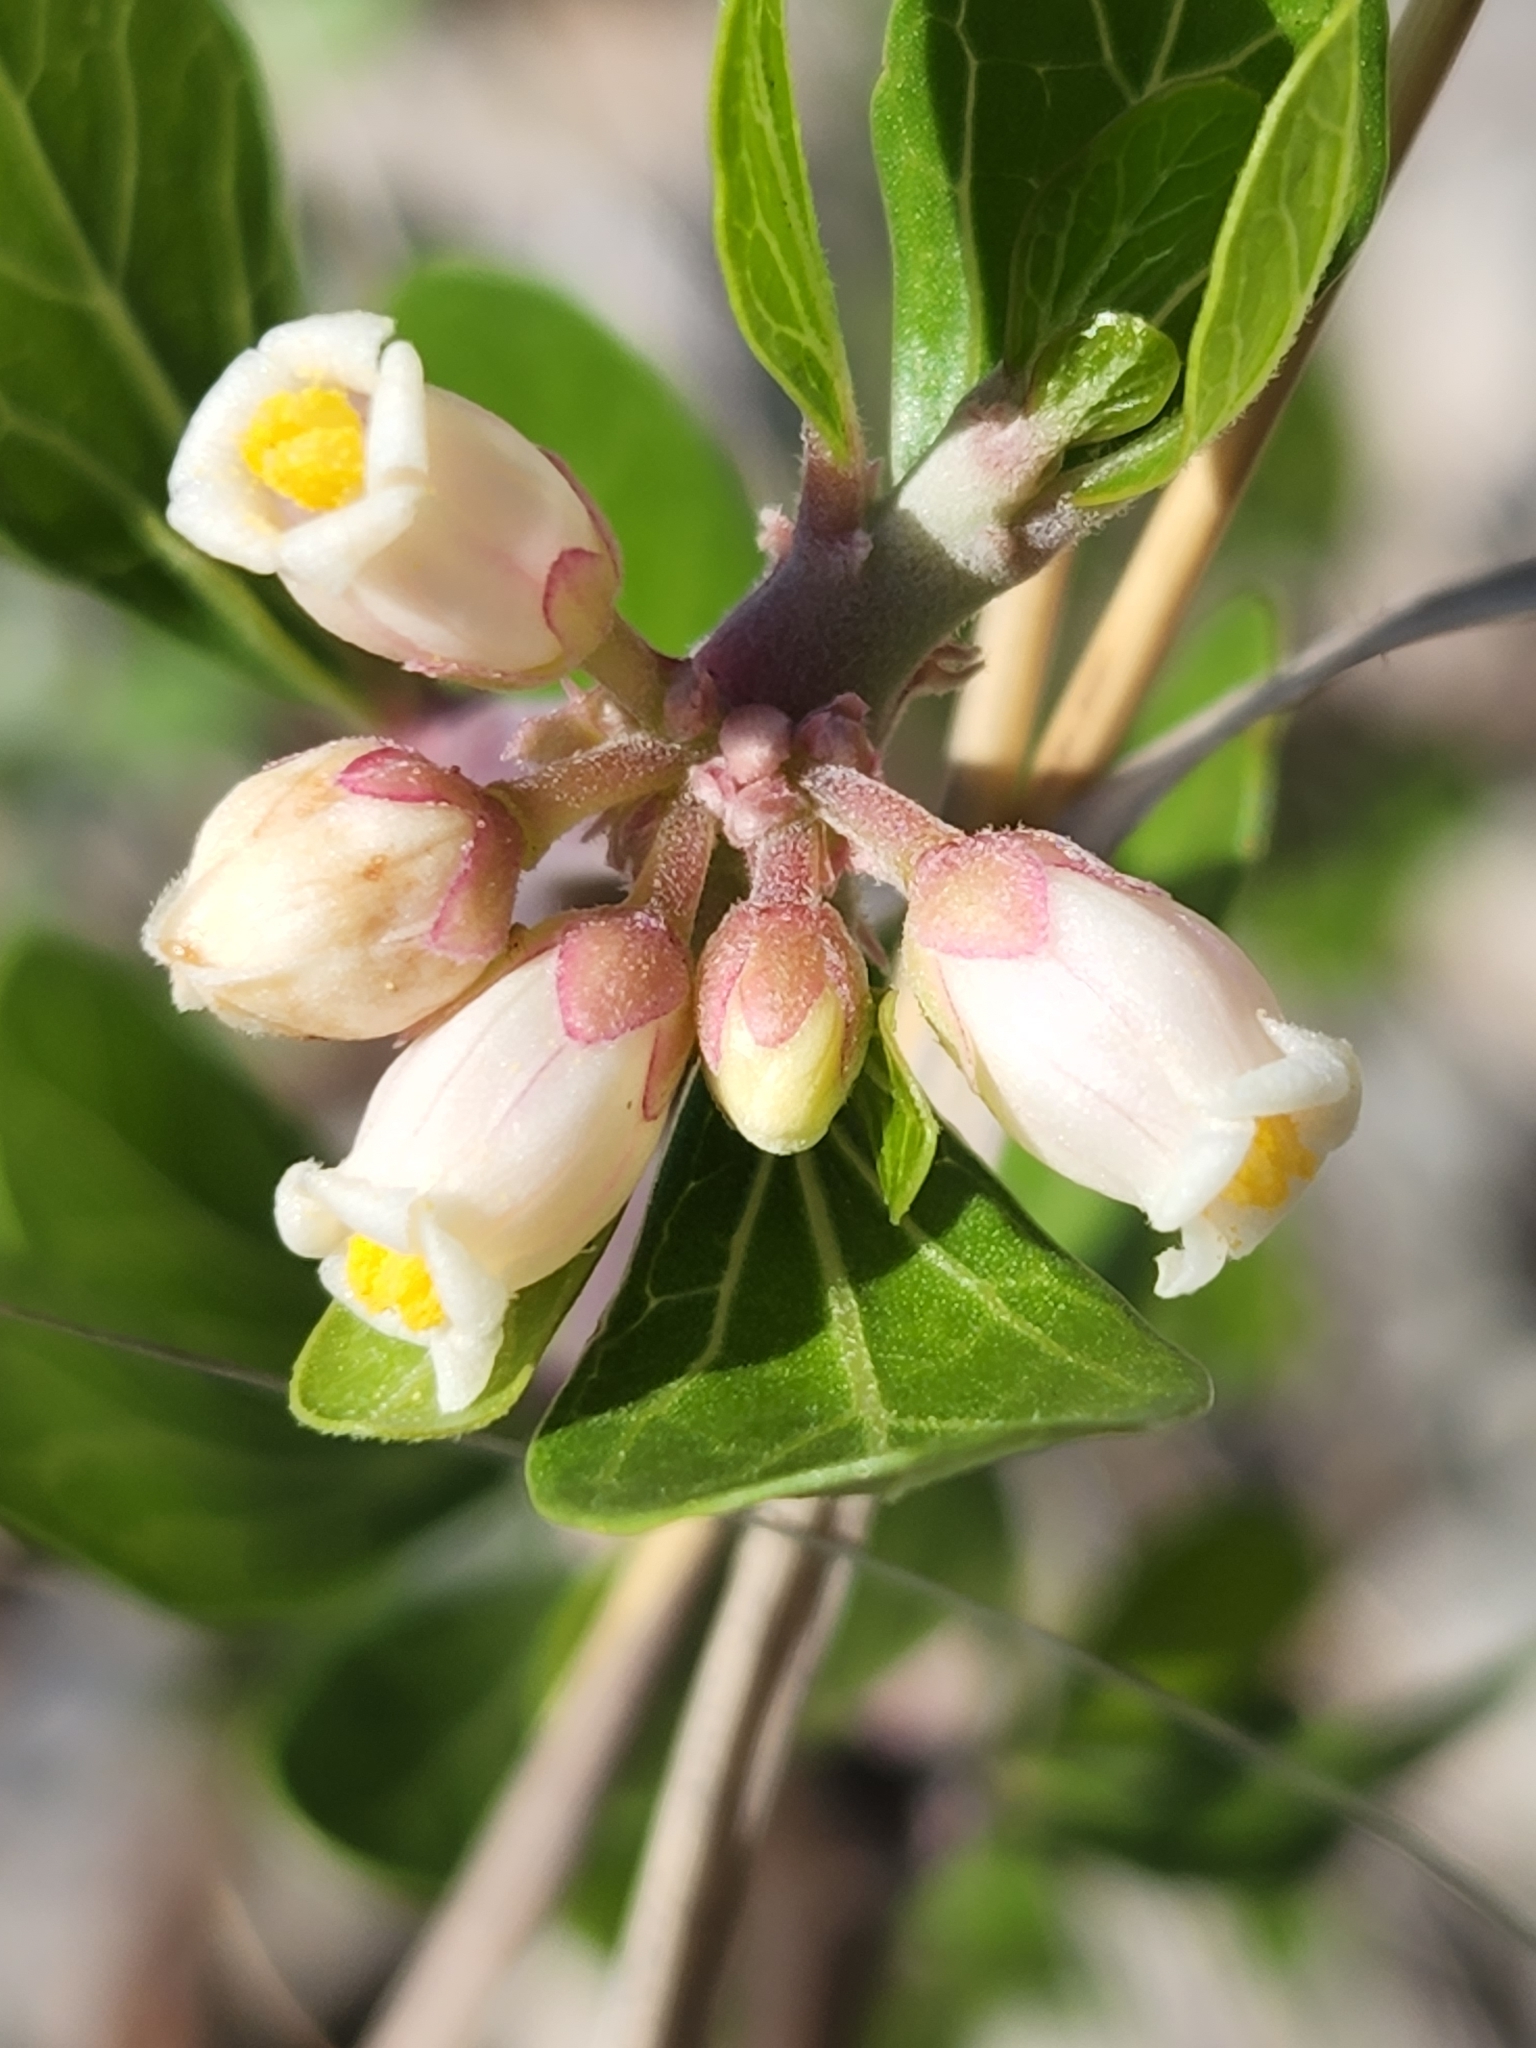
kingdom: Plantae
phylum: Tracheophyta
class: Magnoliopsida
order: Malpighiales
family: Euphorbiaceae
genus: Jatropha
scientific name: Jatropha dioica
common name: Leatherstem
